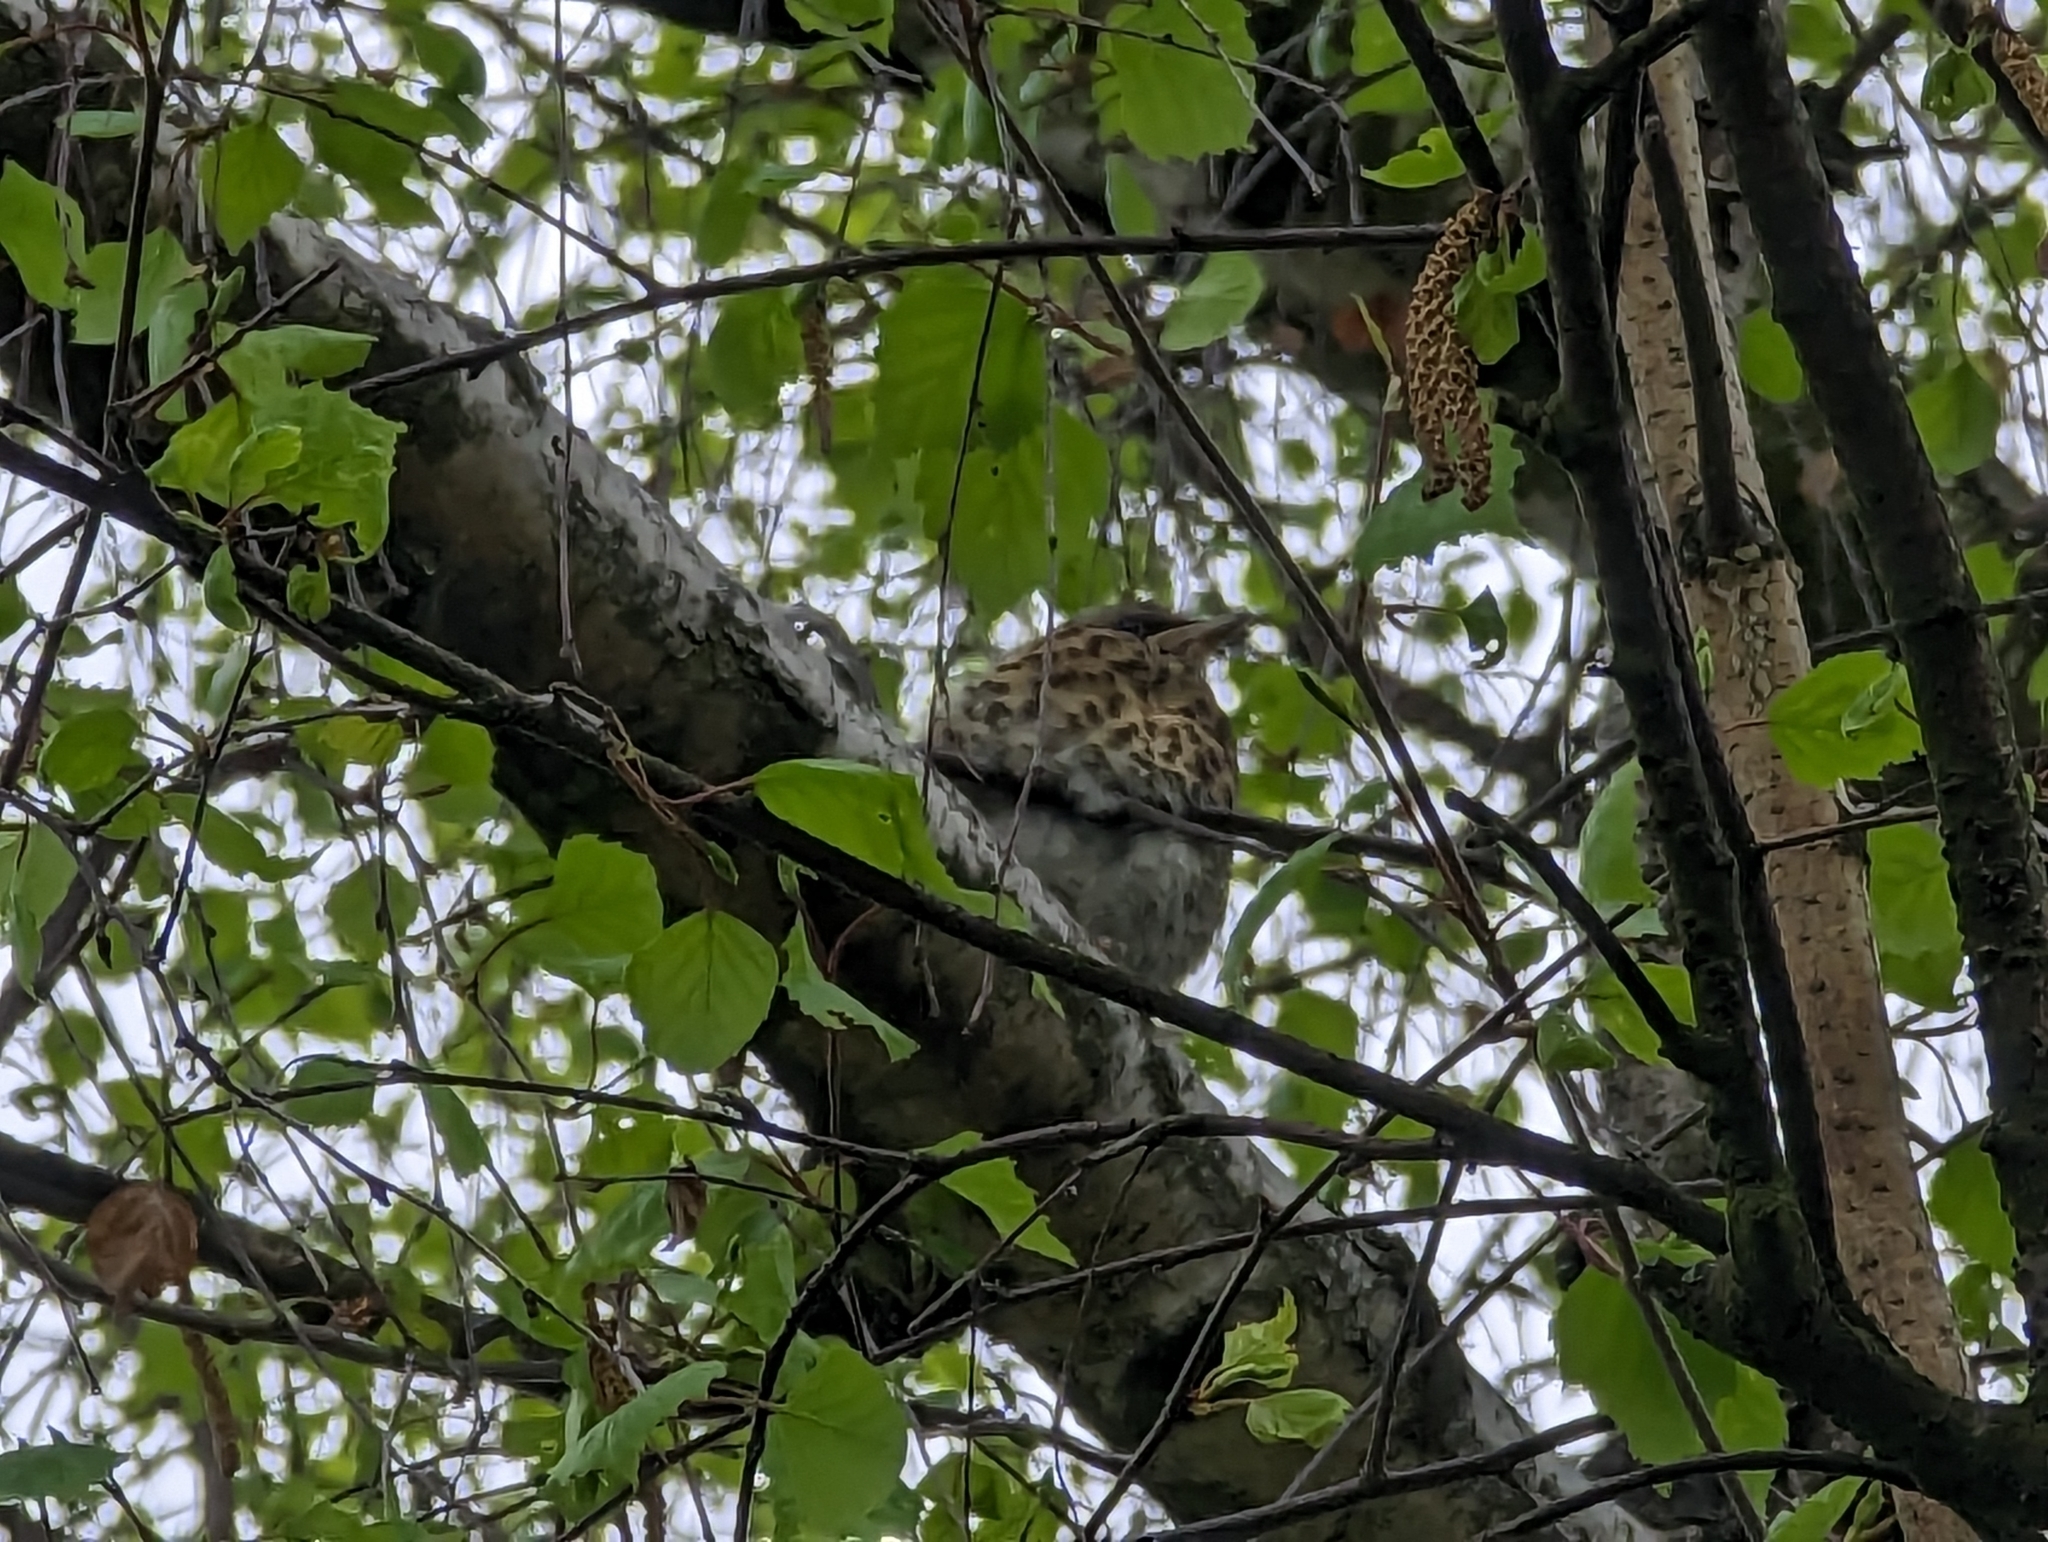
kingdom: Animalia
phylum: Chordata
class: Aves
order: Passeriformes
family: Turdidae
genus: Turdus
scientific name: Turdus pilaris
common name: Fieldfare
